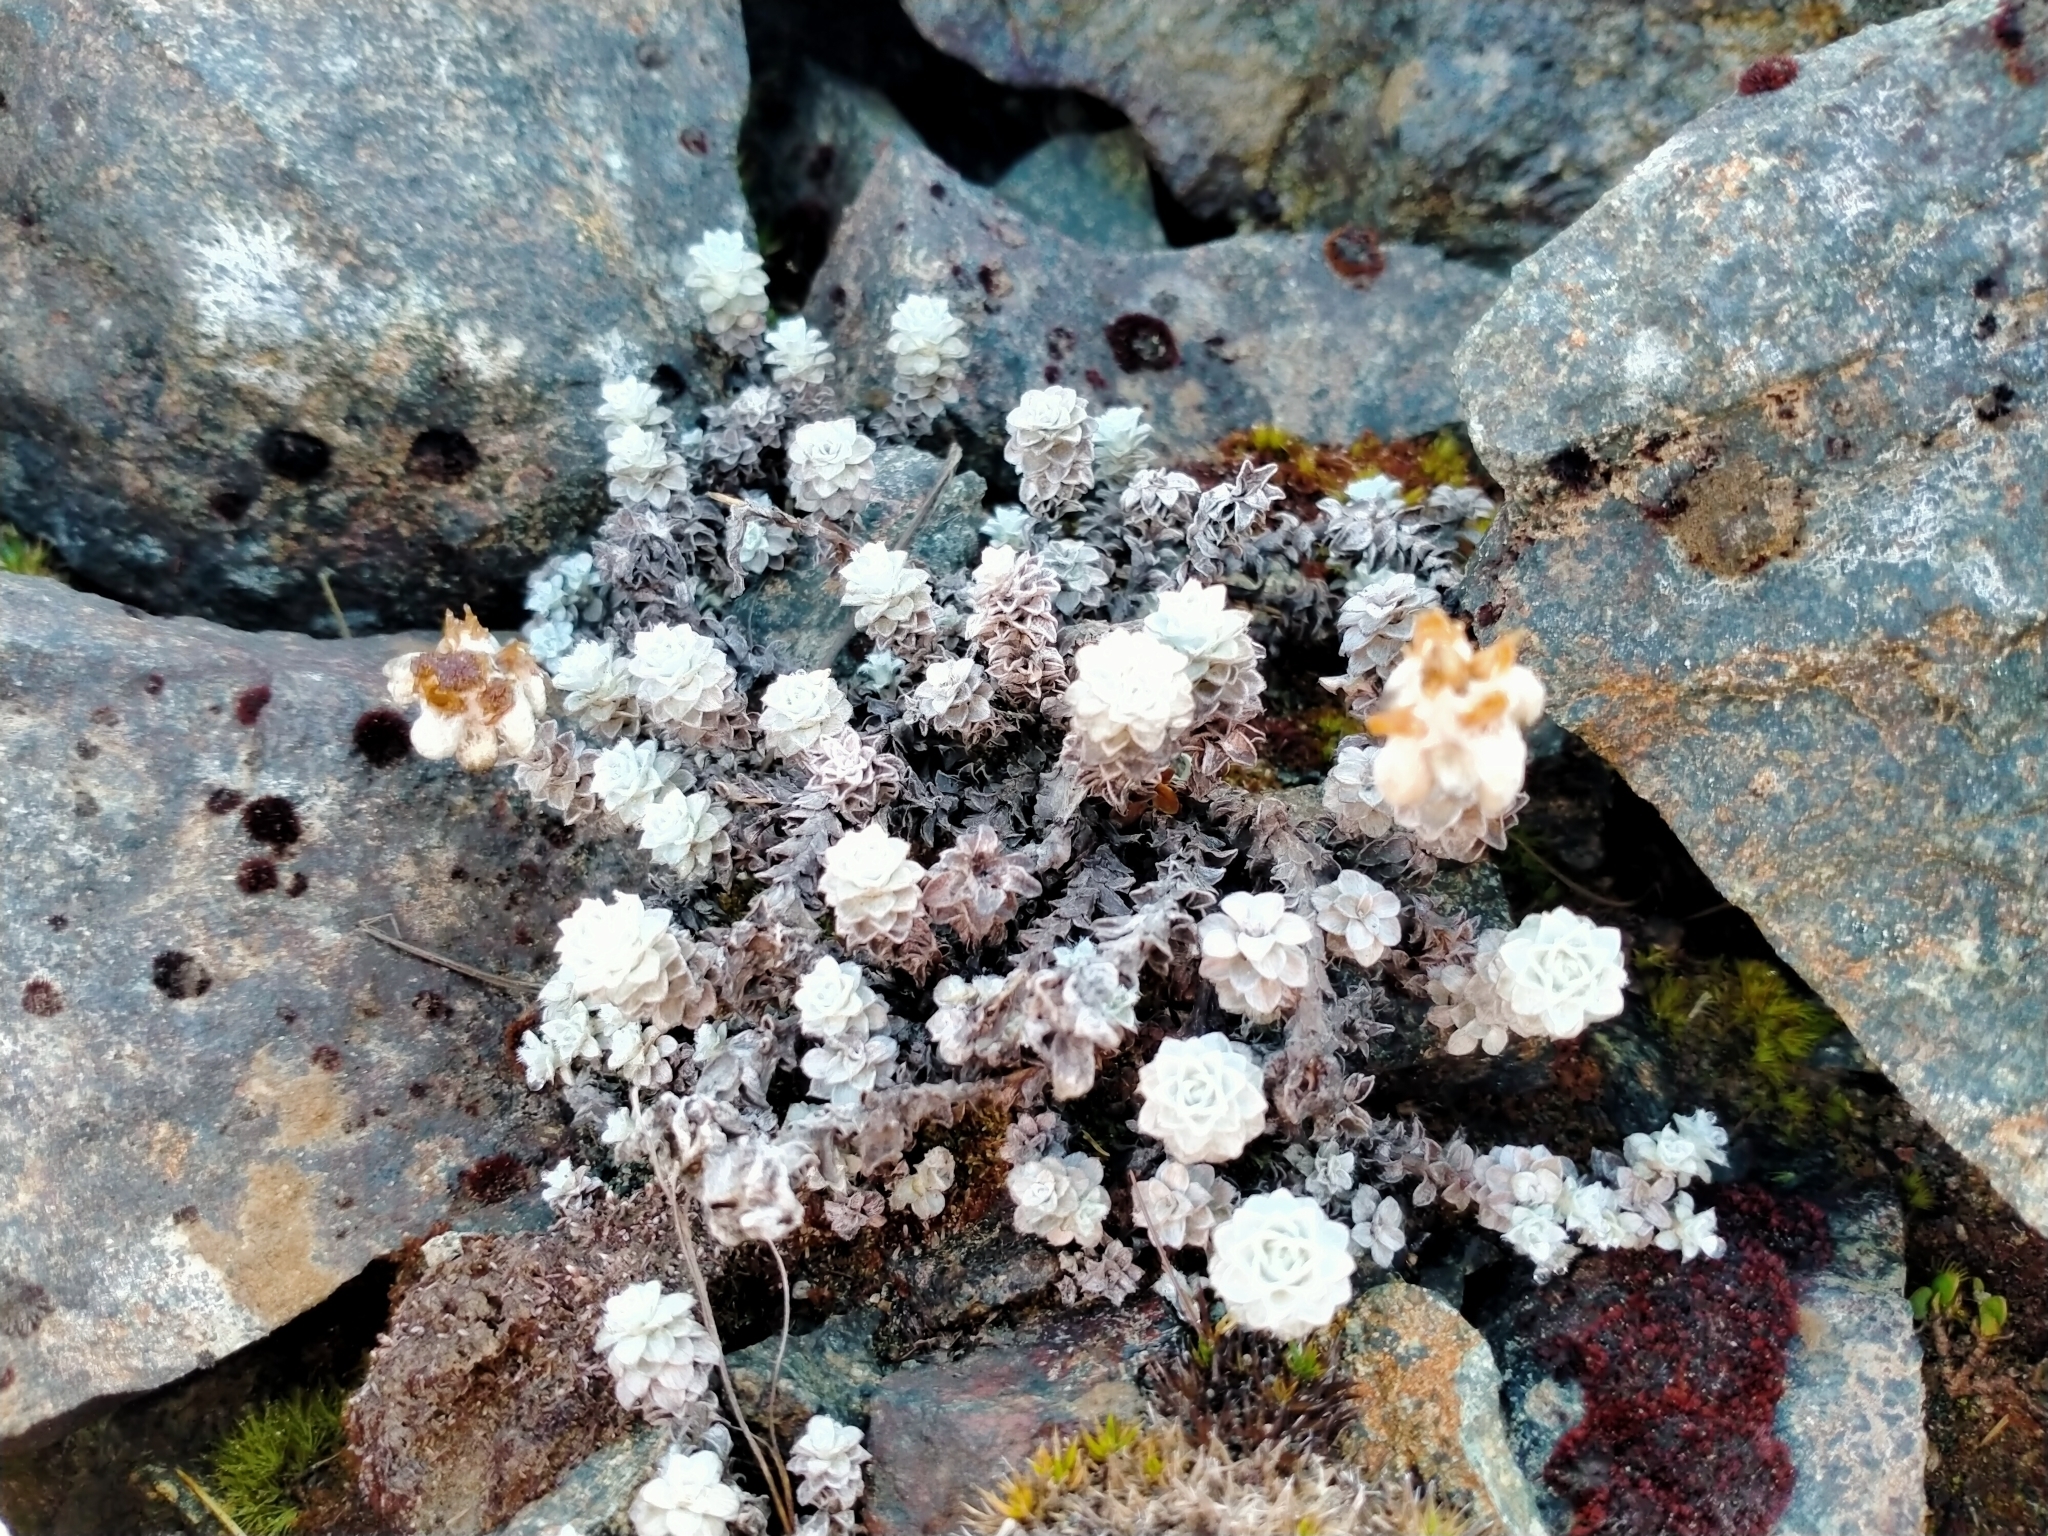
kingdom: Plantae
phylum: Tracheophyta
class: Magnoliopsida
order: Asterales
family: Asteraceae
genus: Leucogenes
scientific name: Leucogenes grandiceps
